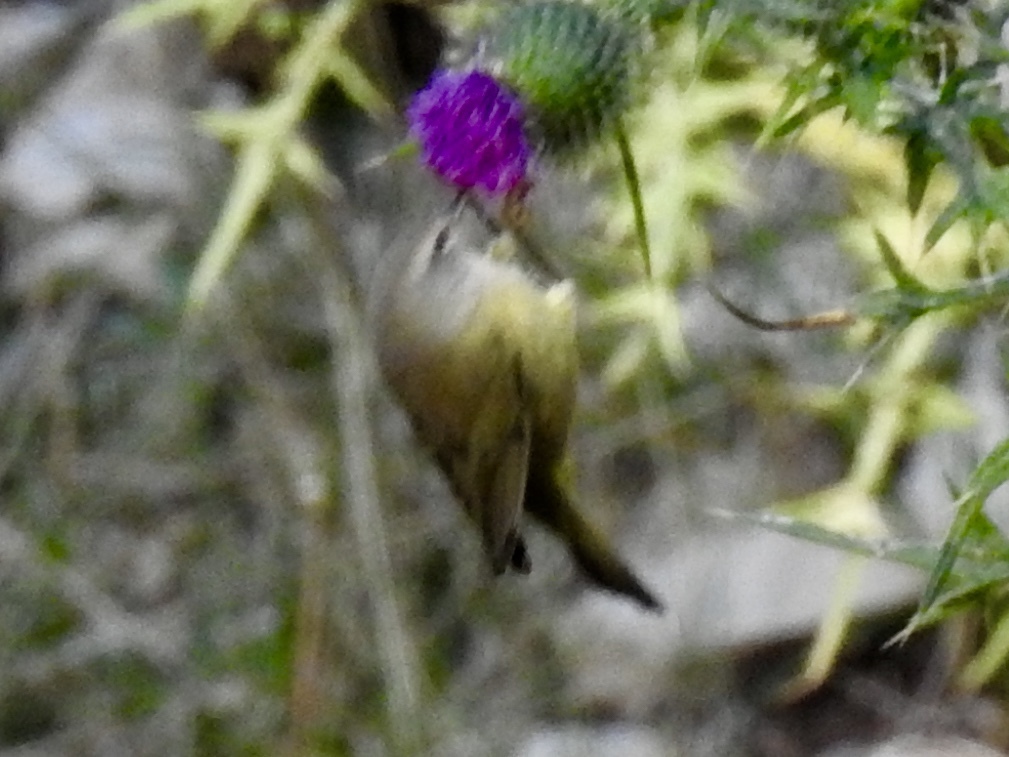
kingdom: Animalia
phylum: Chordata
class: Aves
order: Passeriformes
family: Parulidae
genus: Leiothlypis
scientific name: Leiothlypis celata
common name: Orange-crowned warbler
